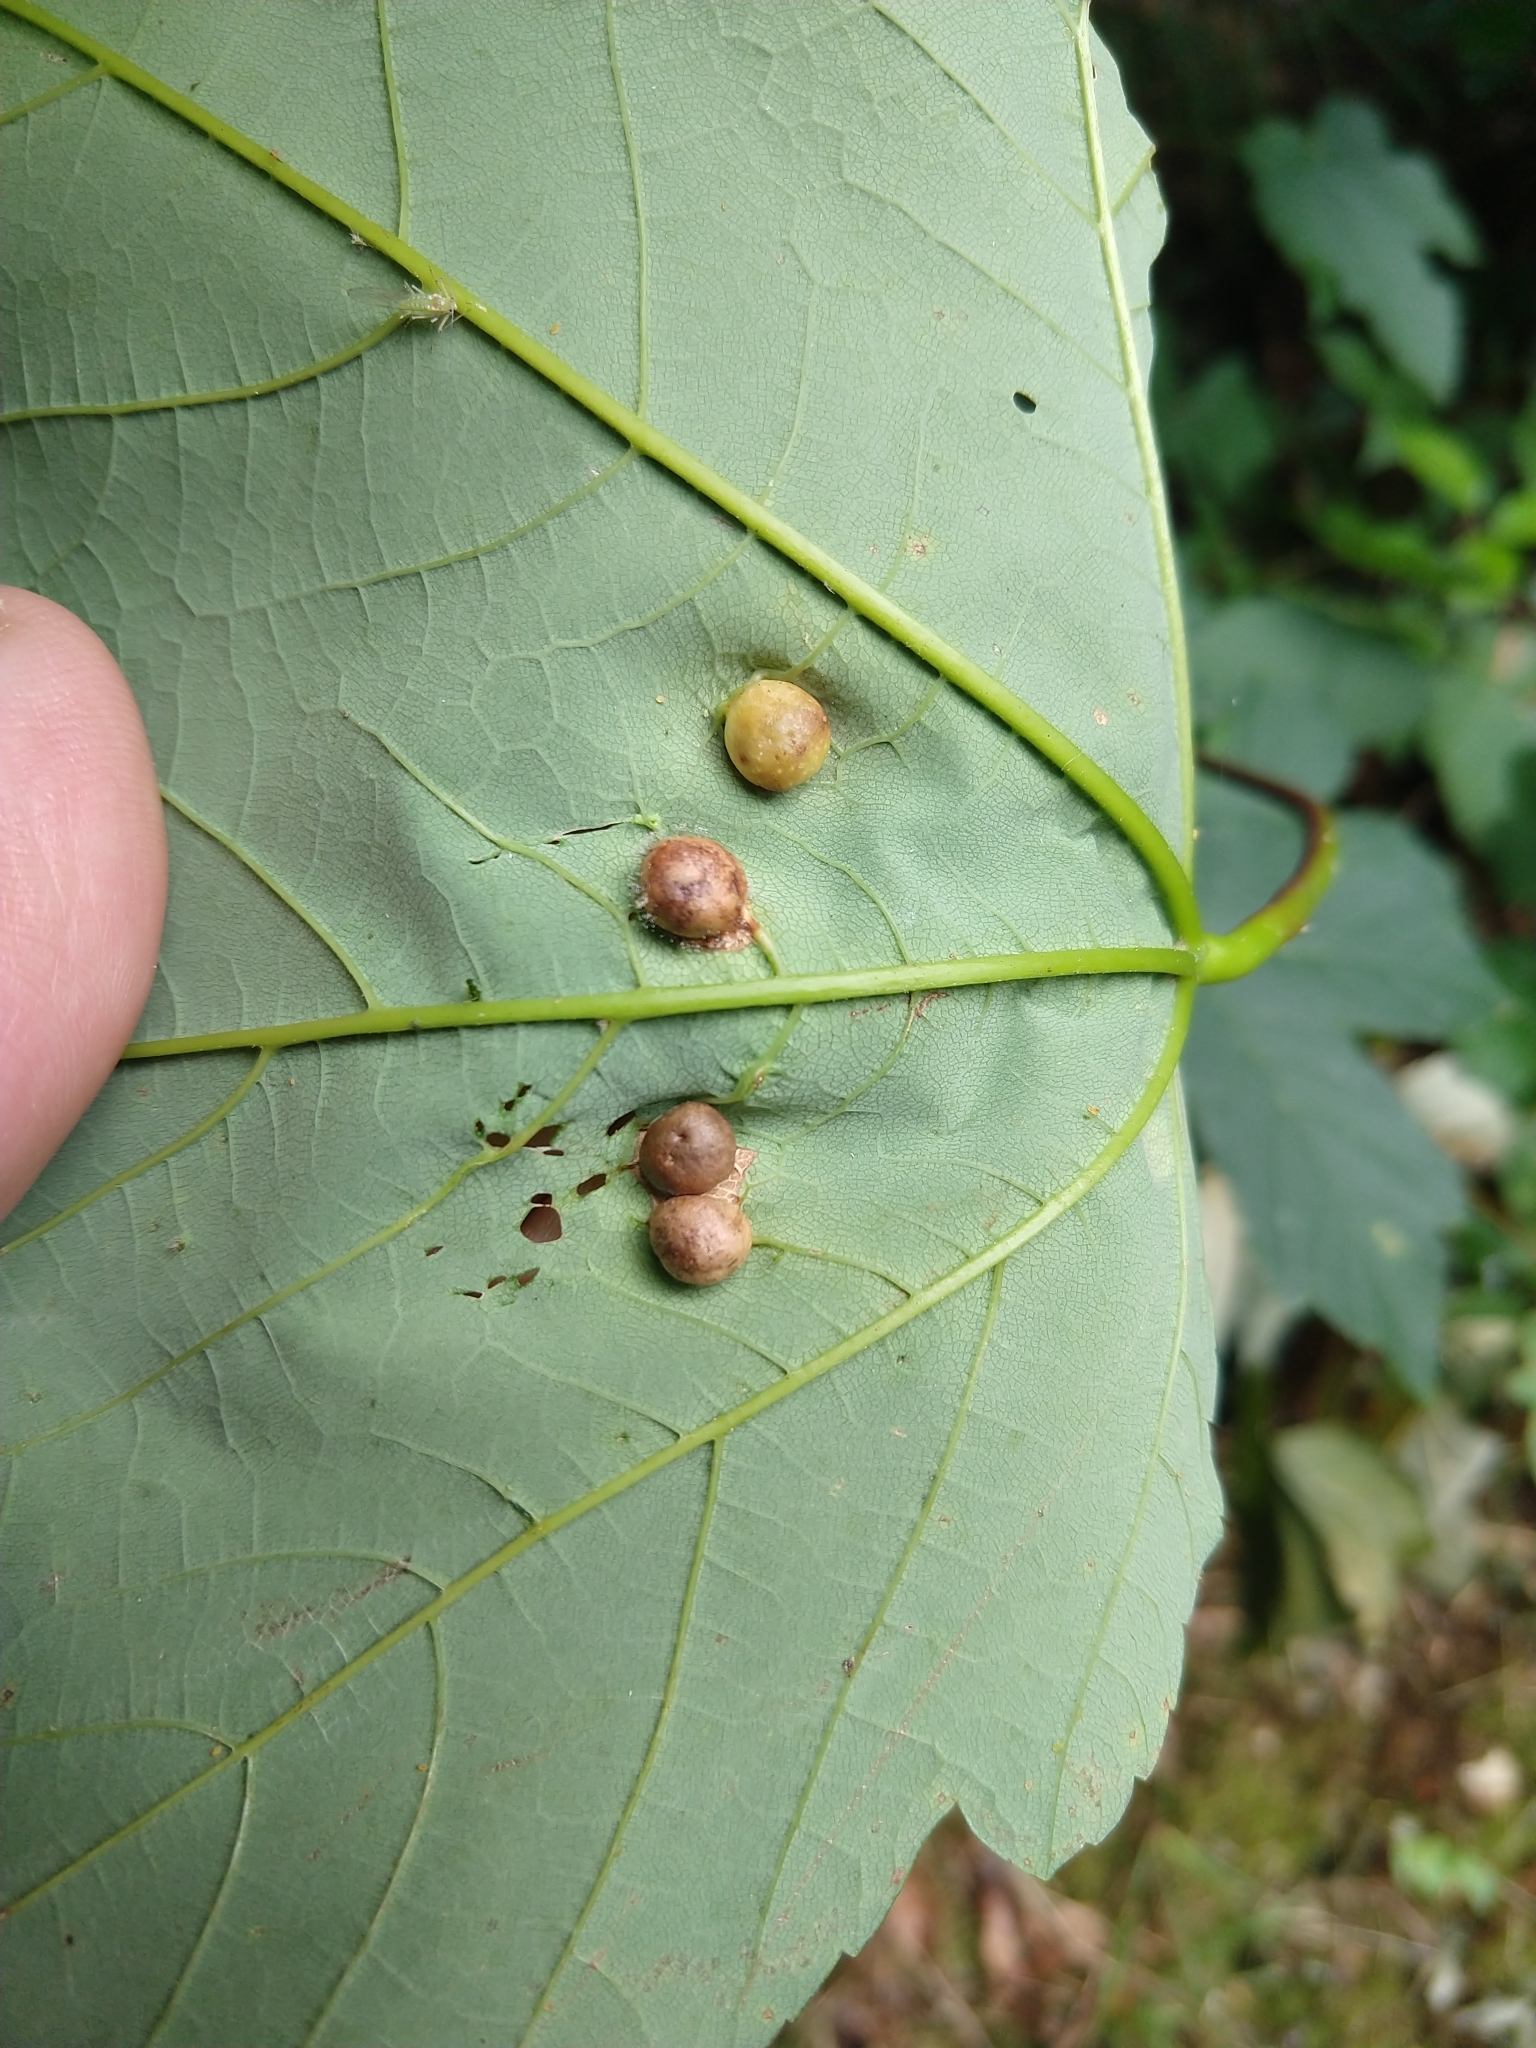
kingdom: Animalia
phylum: Arthropoda
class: Insecta
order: Hymenoptera
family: Cynipidae
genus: Pediaspis
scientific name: Pediaspis aceris
